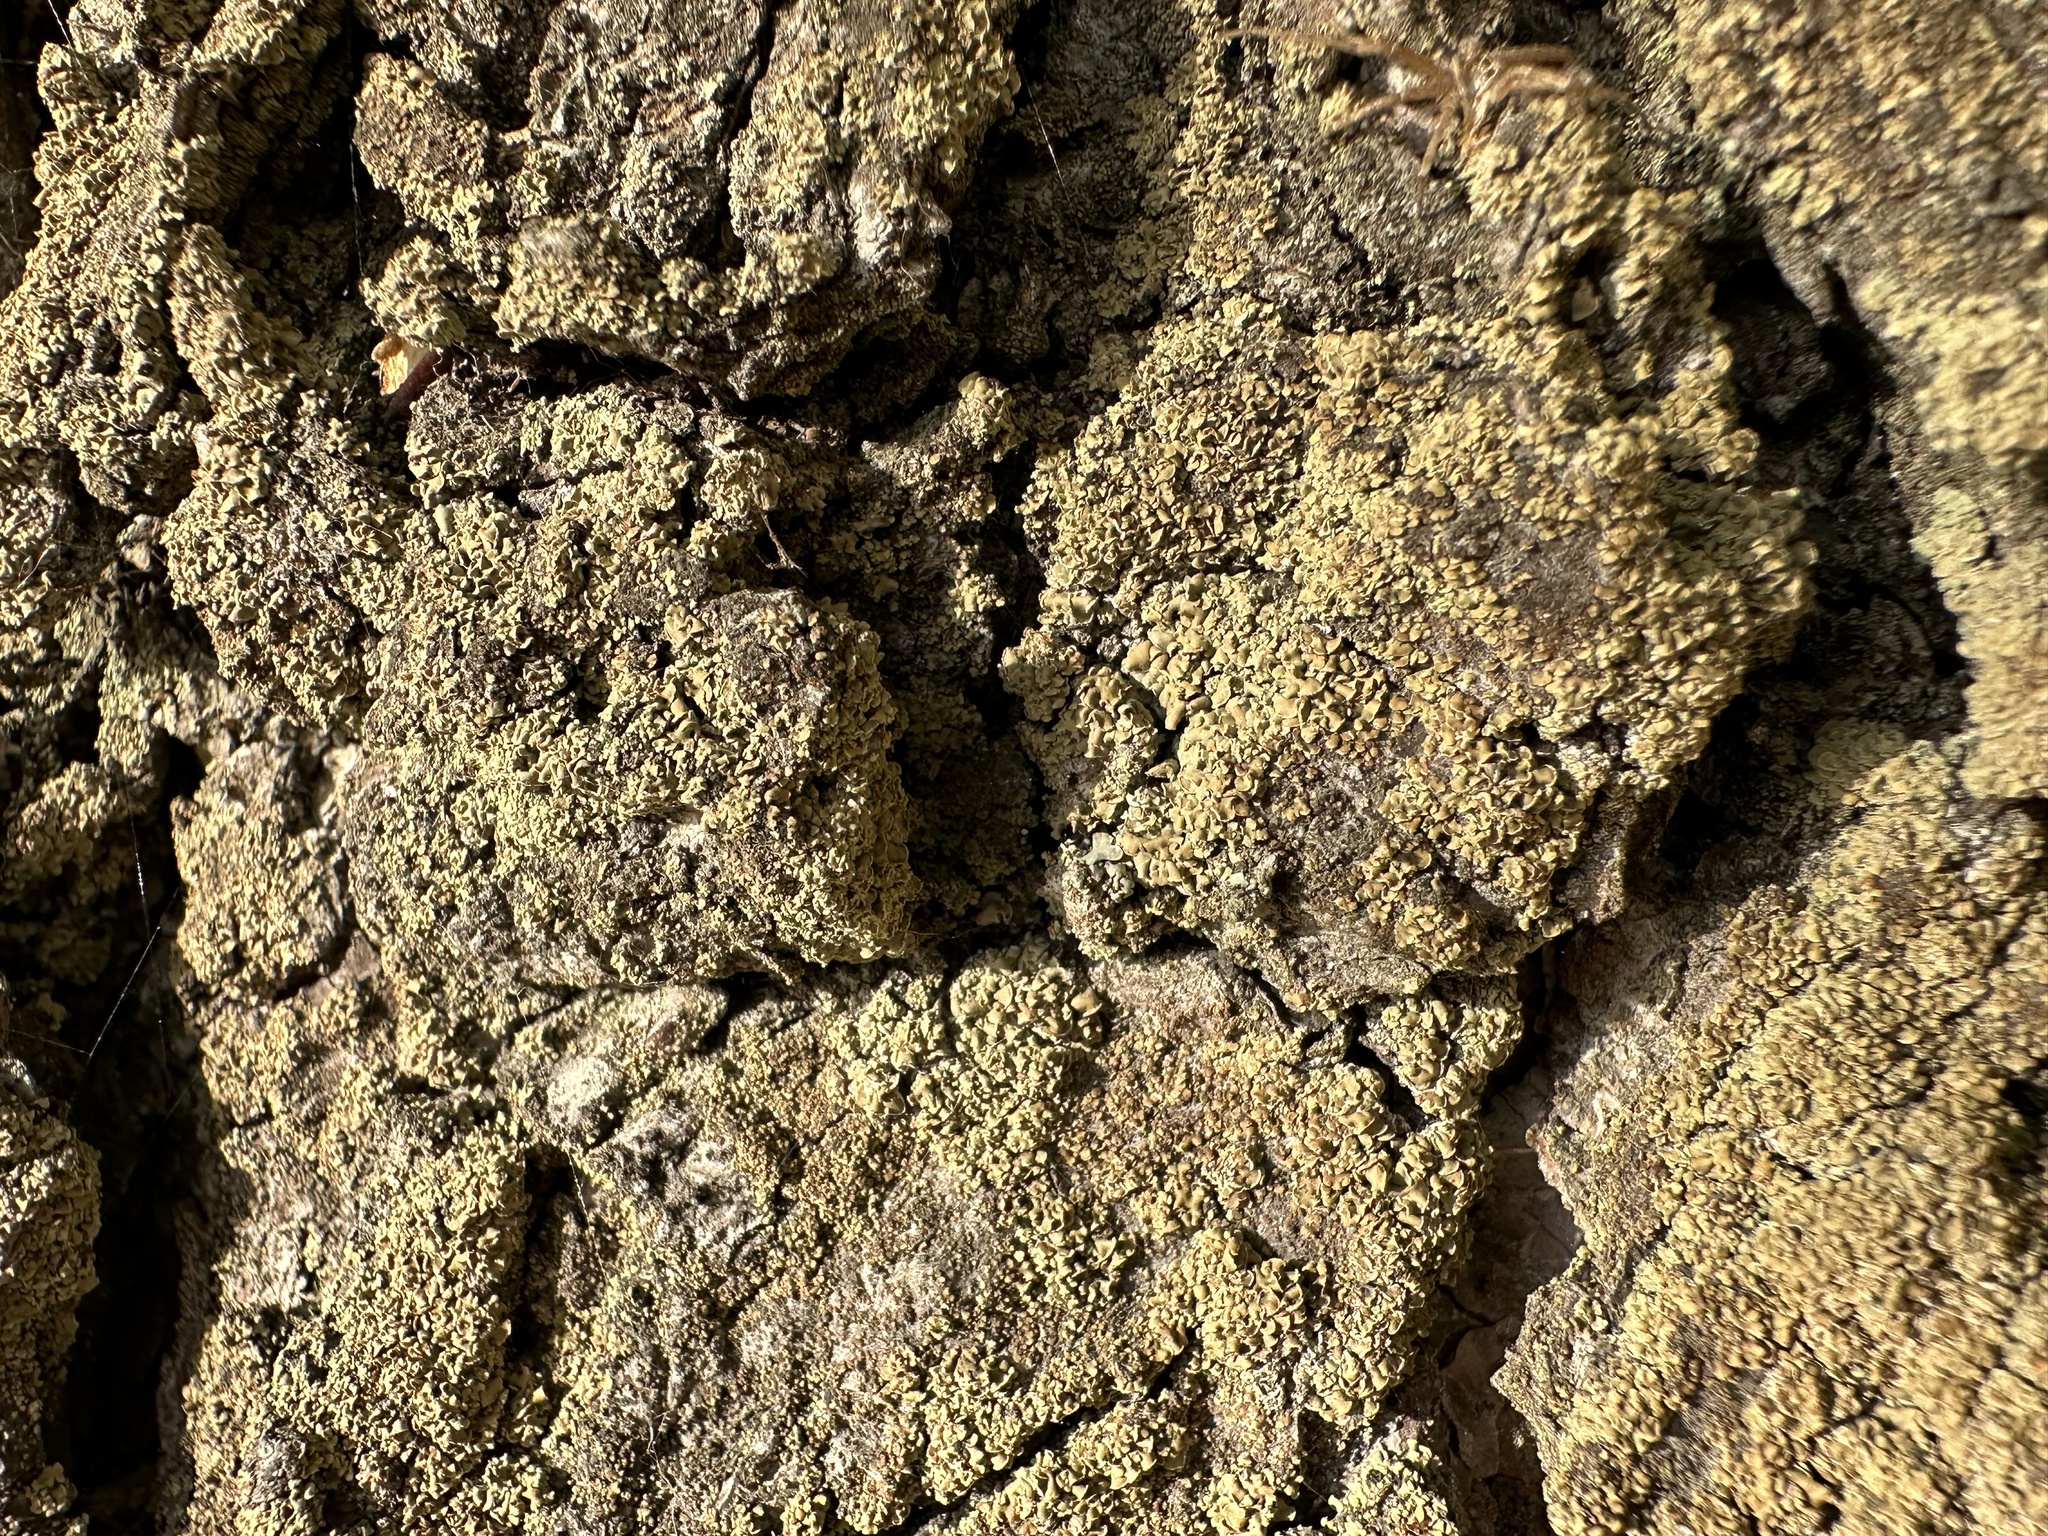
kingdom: Fungi
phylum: Ascomycota
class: Lecanoromycetes
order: Umbilicariales
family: Ophioparmaceae
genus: Hypocenomyce
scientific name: Hypocenomyce scalaris
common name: Common clam lichen
